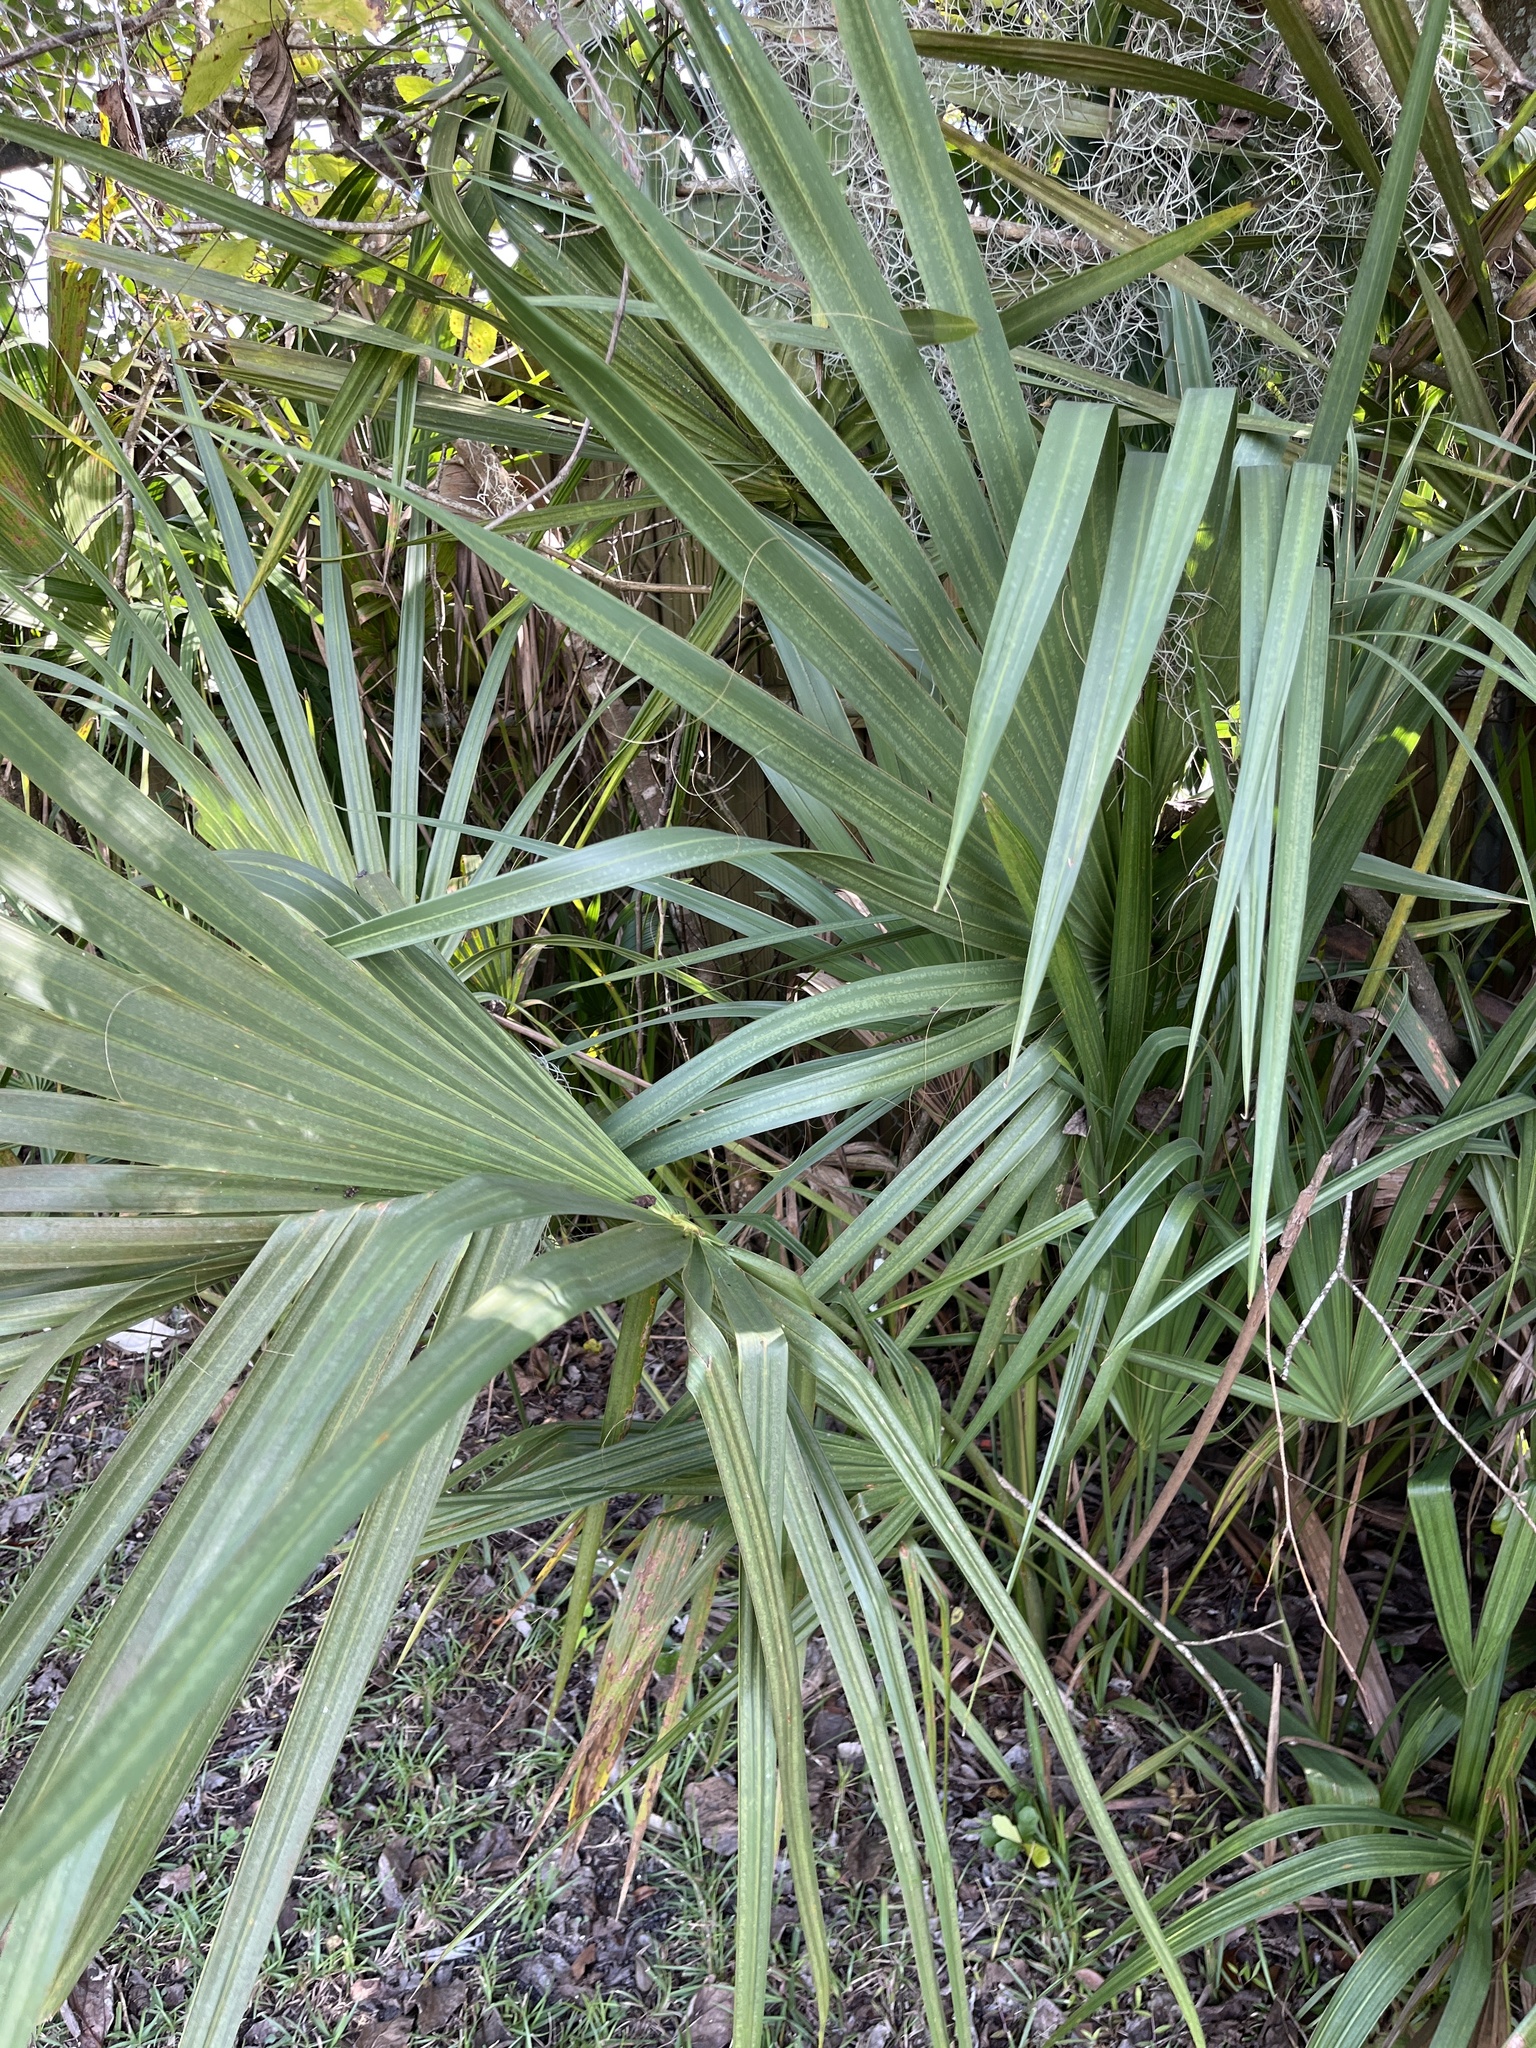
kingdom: Plantae
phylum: Tracheophyta
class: Liliopsida
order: Arecales
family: Arecaceae
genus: Sabal
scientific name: Sabal palmetto
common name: Blue palmetto
